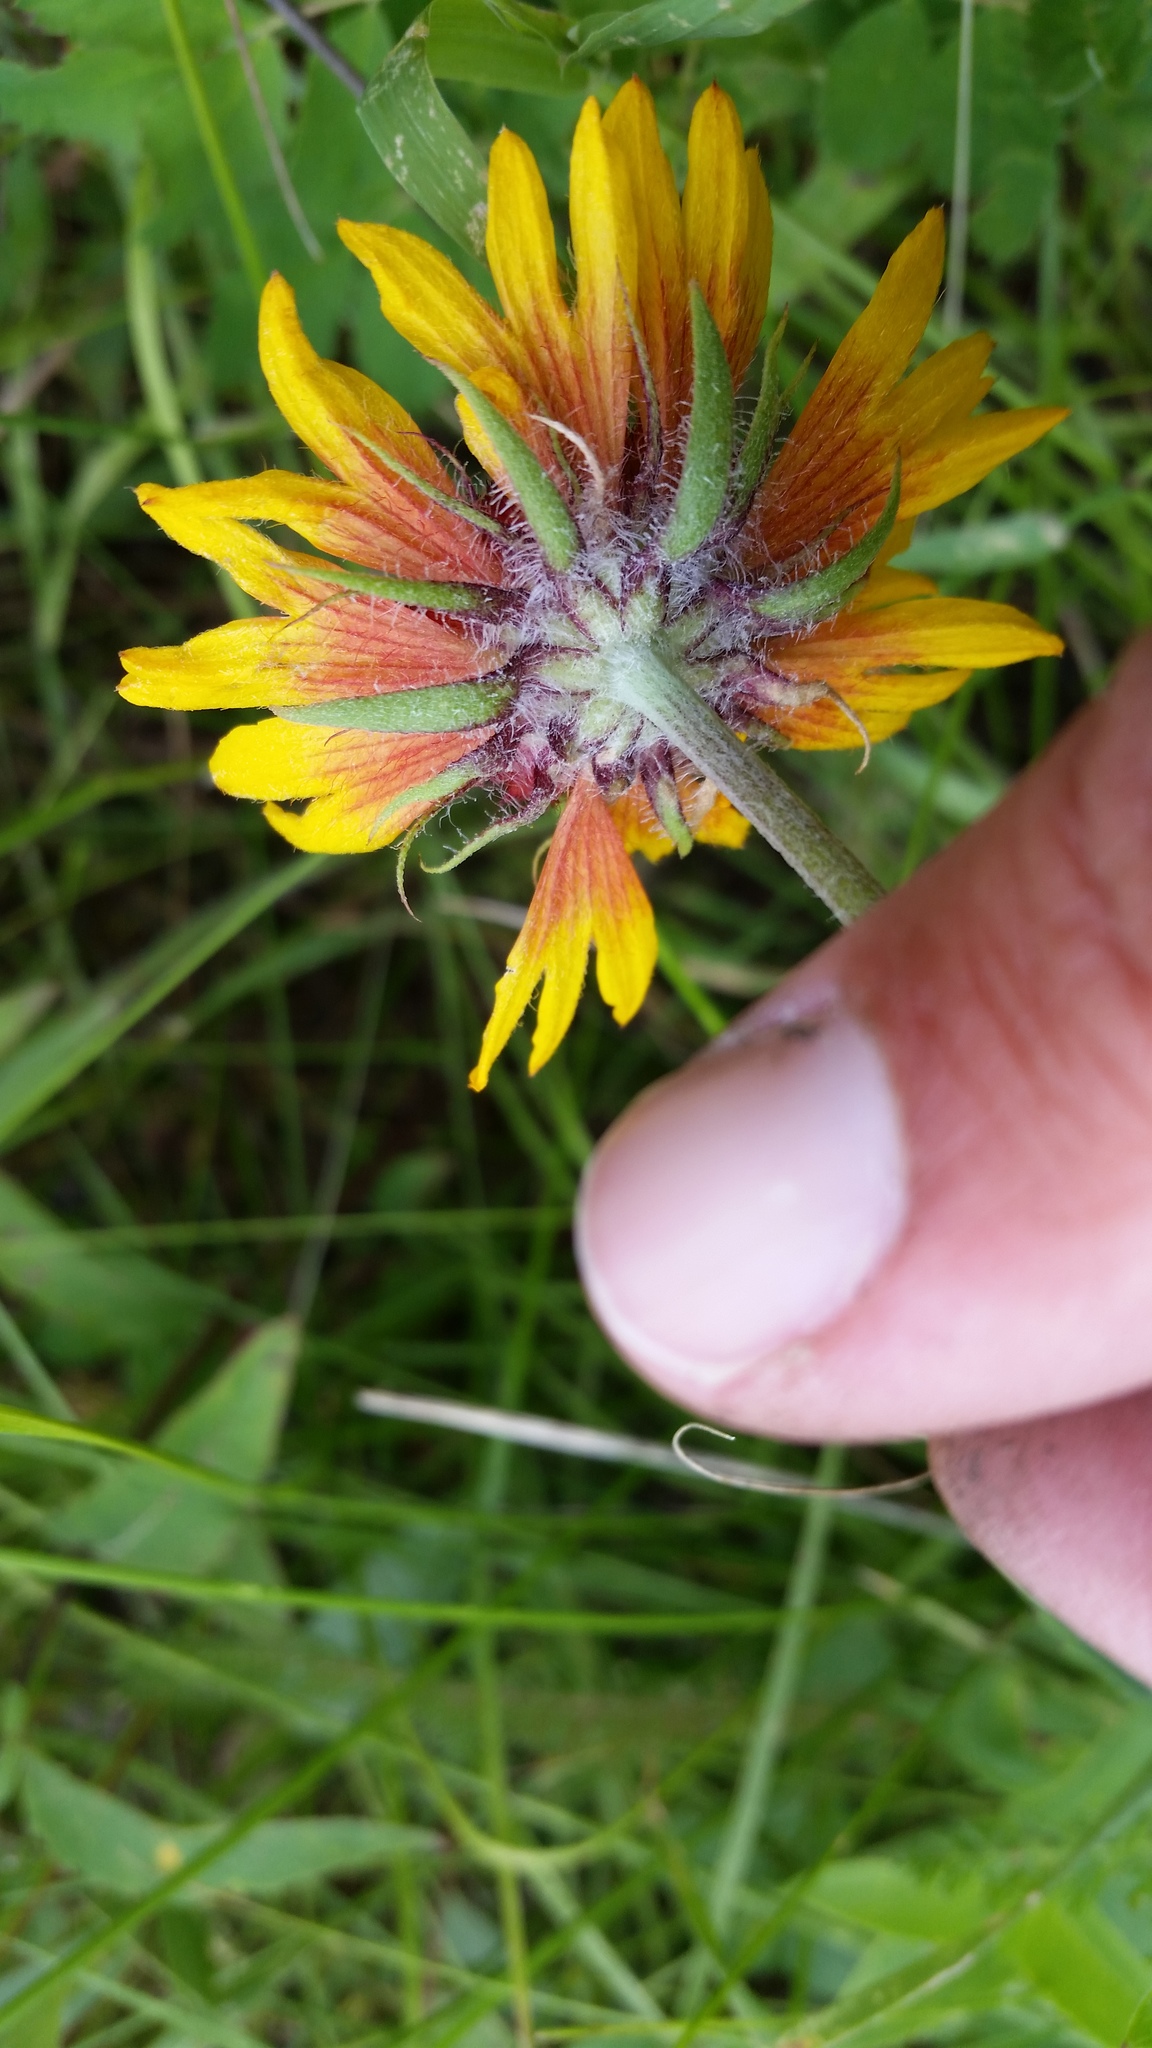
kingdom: Plantae
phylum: Tracheophyta
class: Magnoliopsida
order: Asterales
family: Asteraceae
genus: Gaillardia
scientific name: Gaillardia aristata
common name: Blanket-flower
